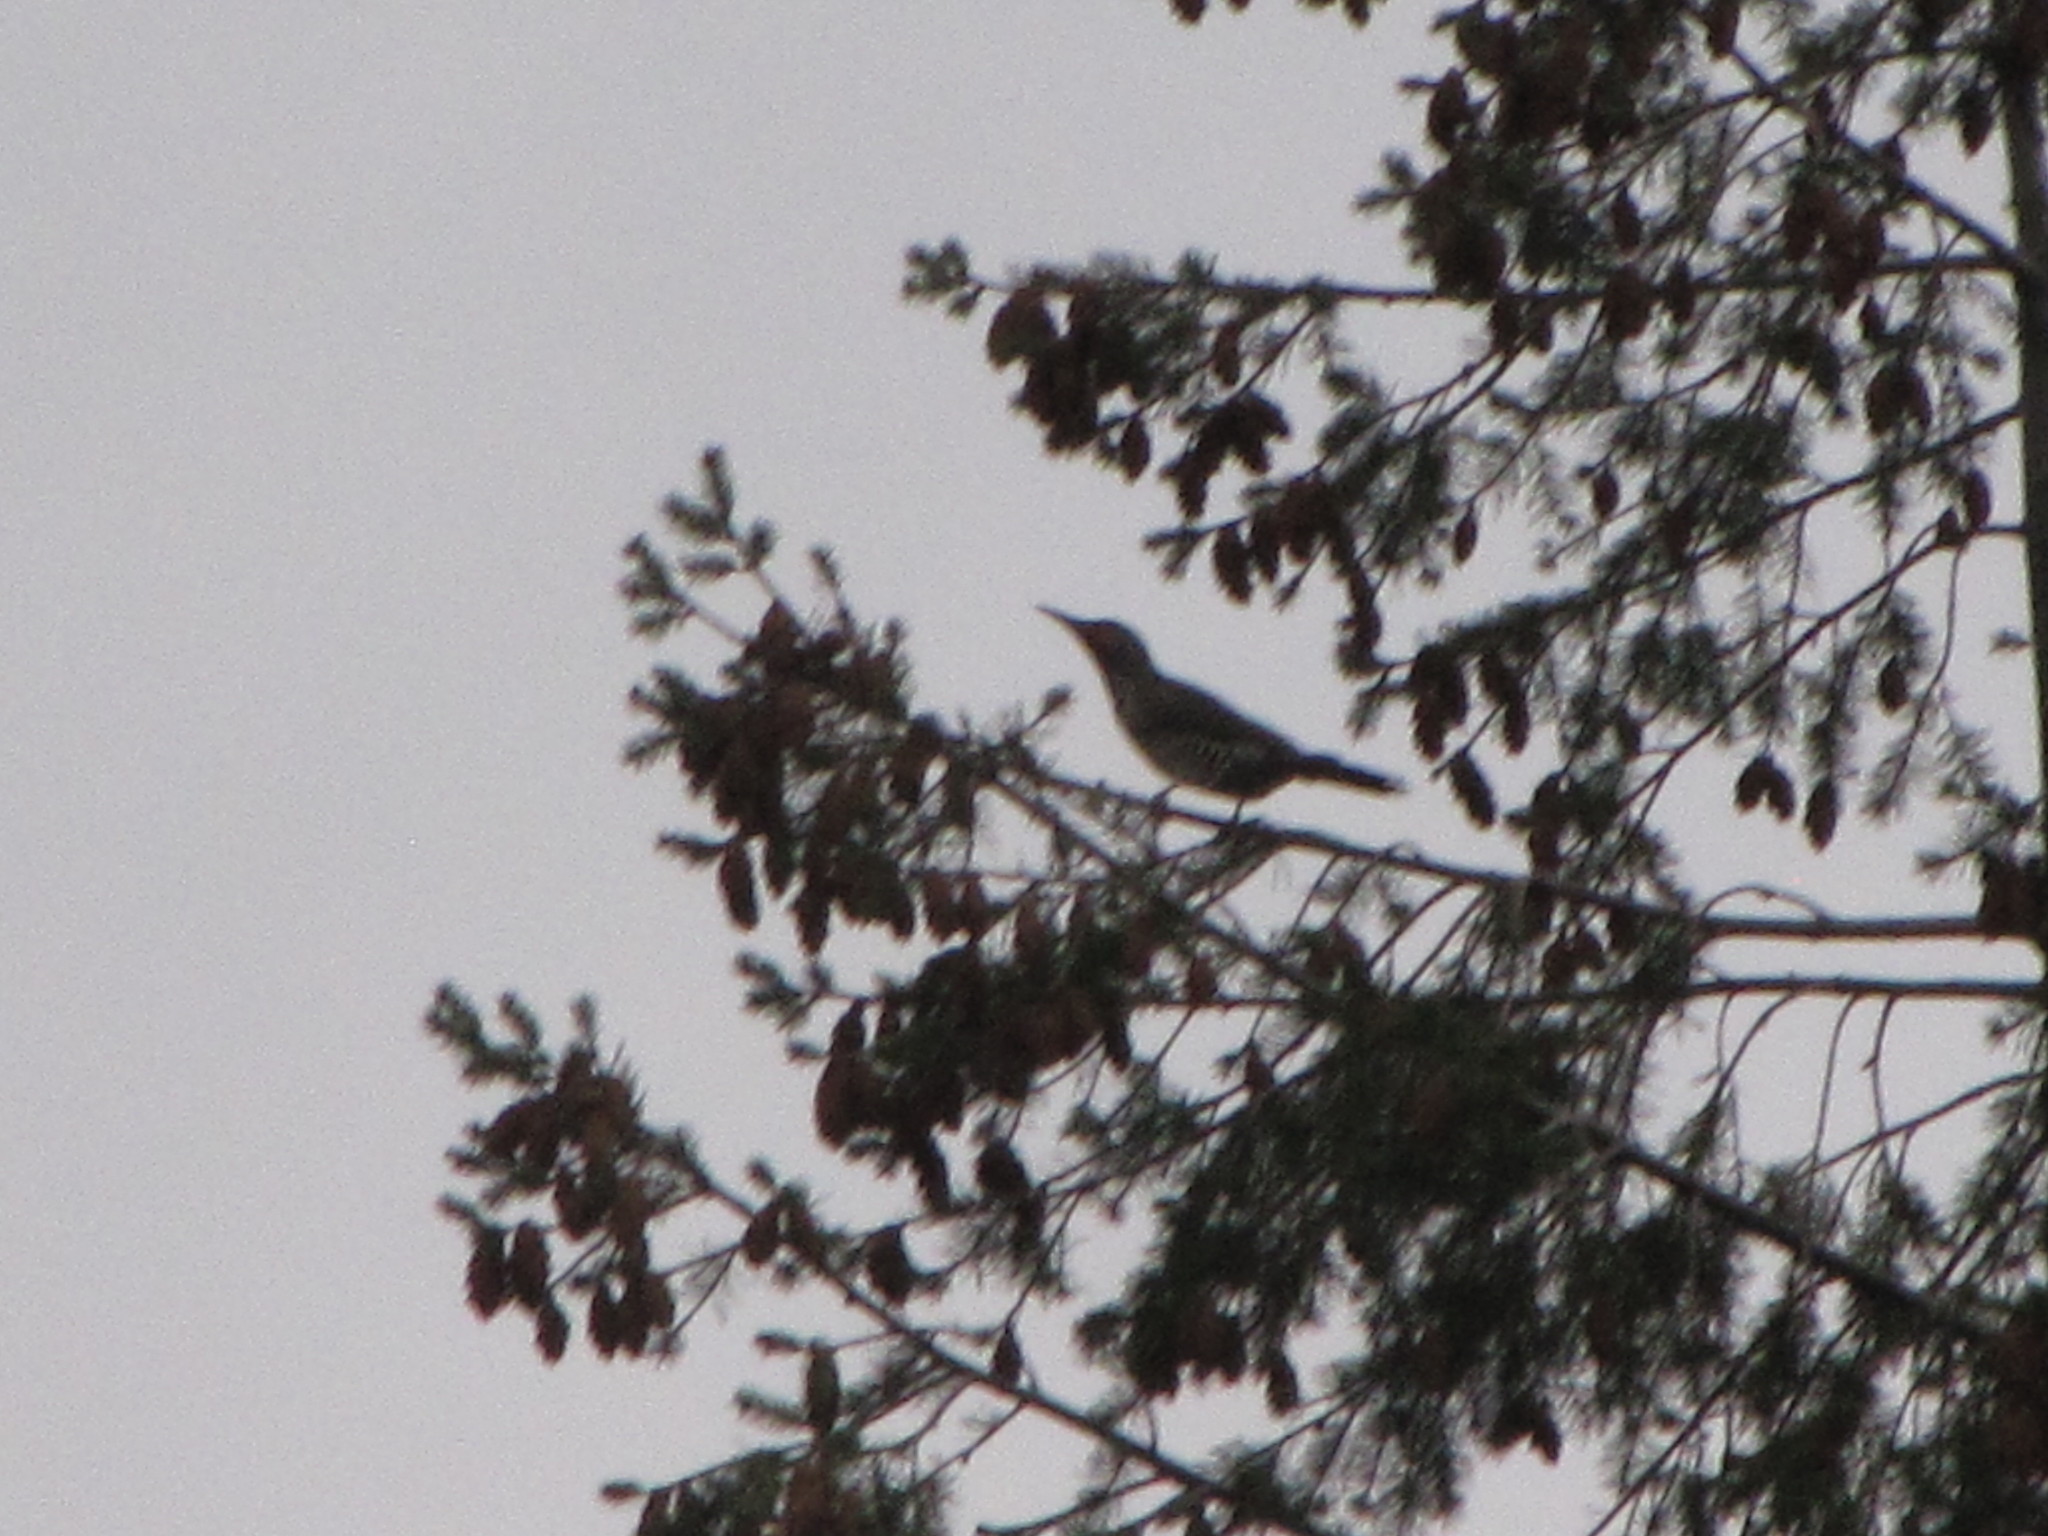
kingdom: Animalia
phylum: Chordata
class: Aves
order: Piciformes
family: Picidae
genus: Colaptes
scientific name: Colaptes auratus
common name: Northern flicker
